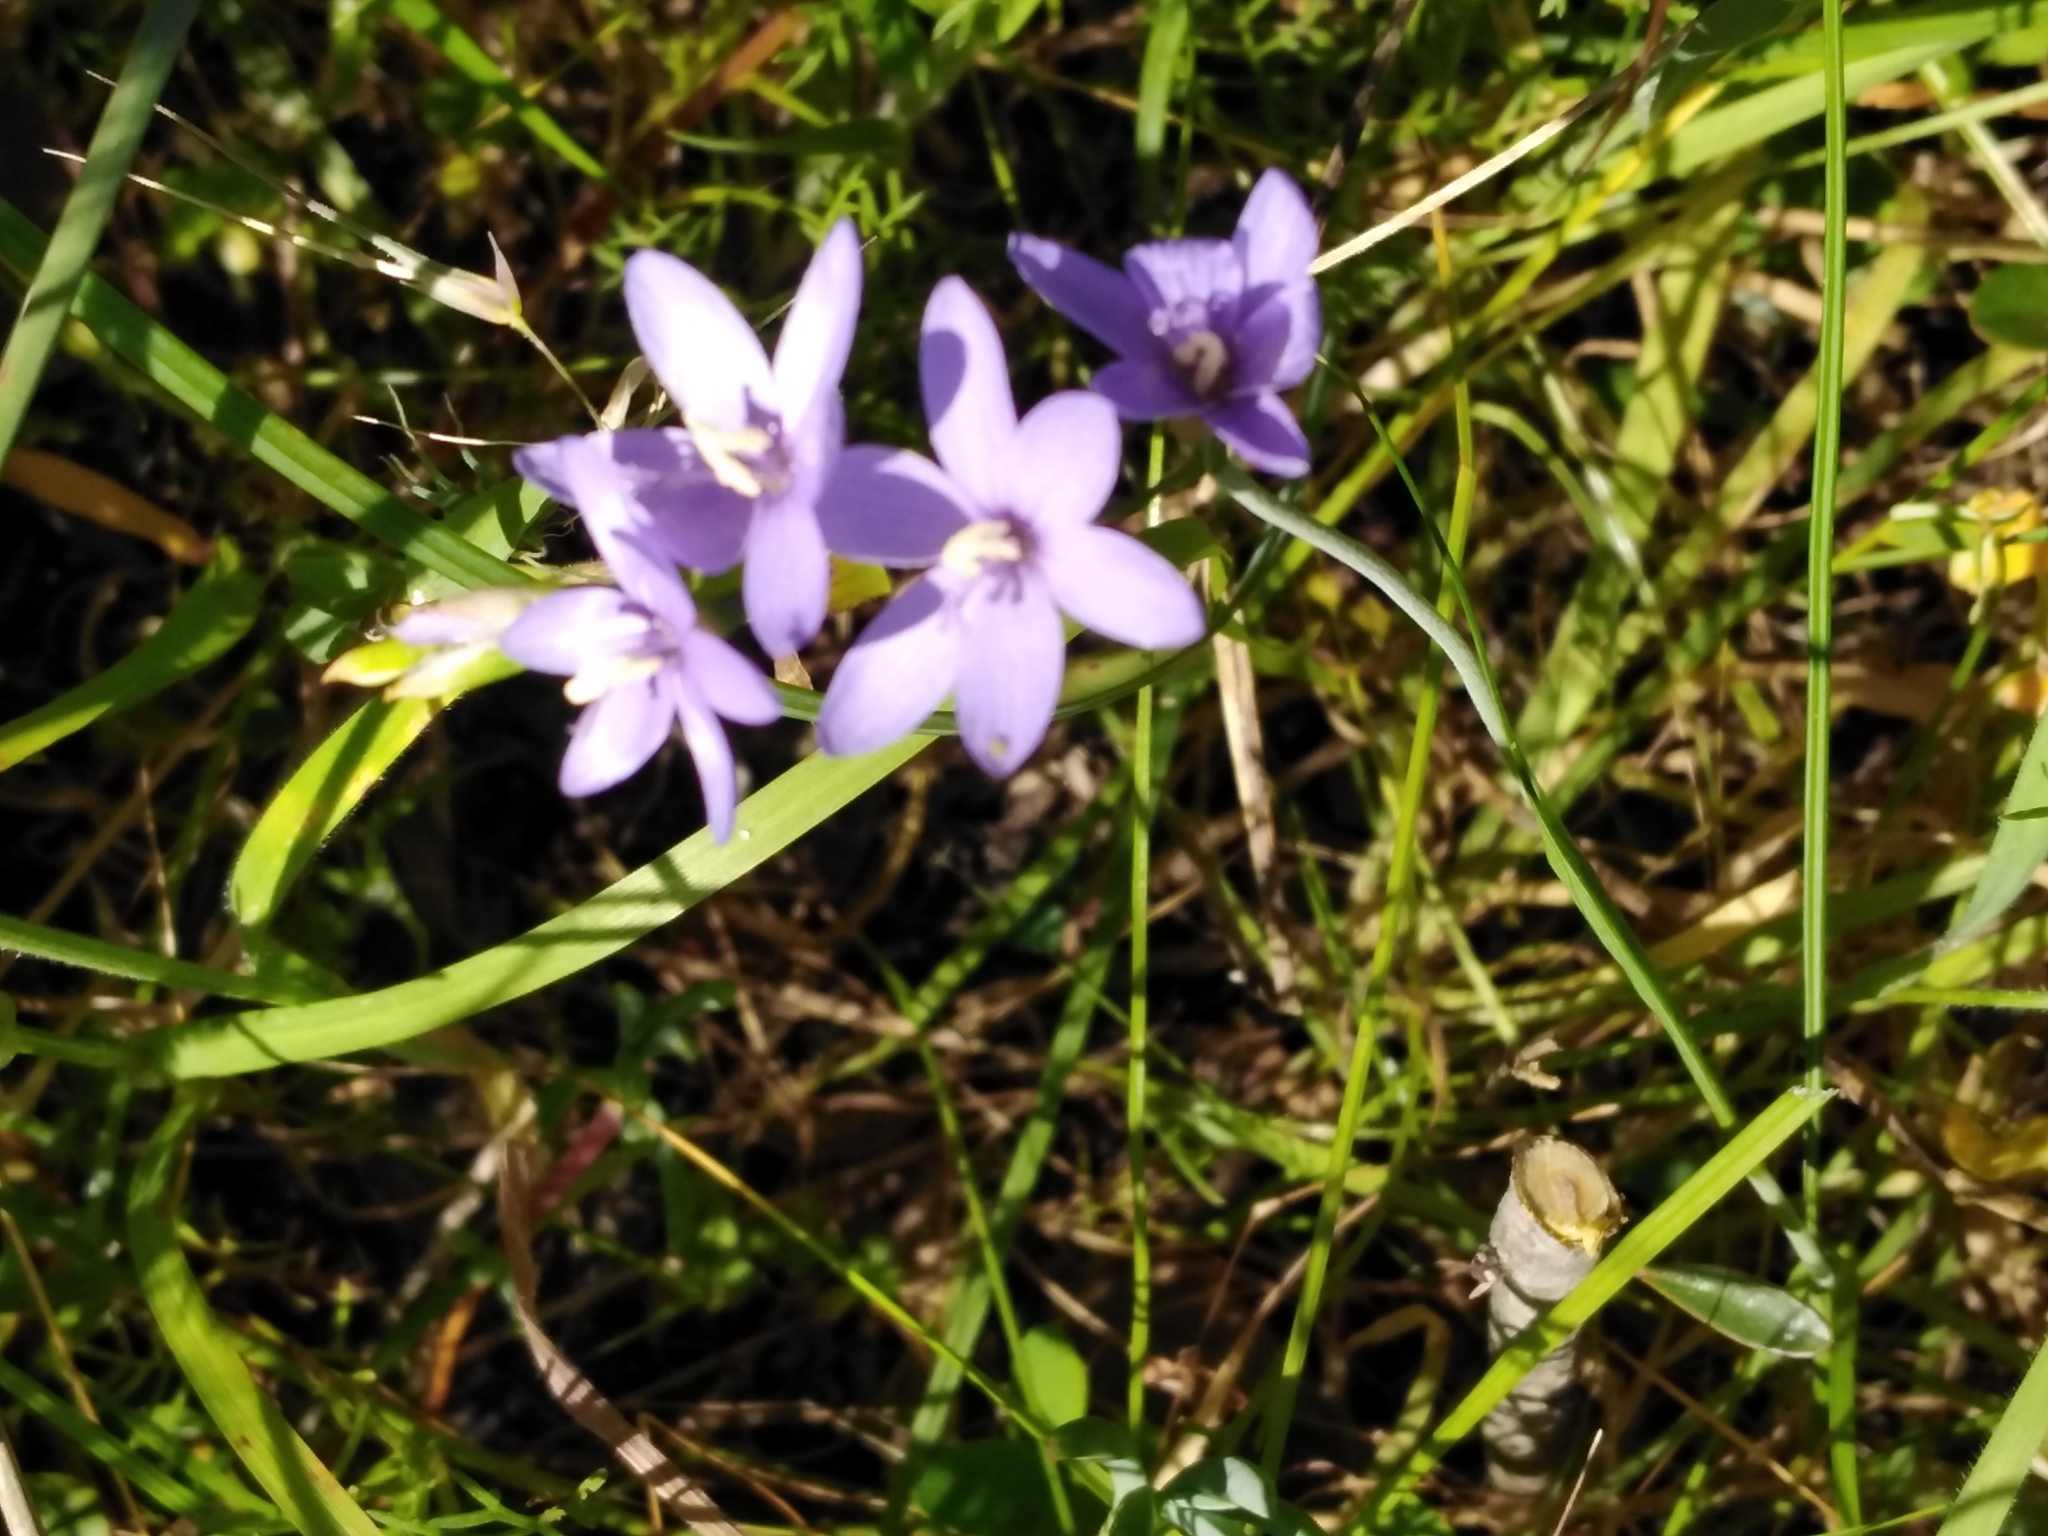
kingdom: Plantae
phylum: Tracheophyta
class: Liliopsida
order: Asparagales
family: Iridaceae
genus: Geissorhiza
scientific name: Geissorhiza aspera
